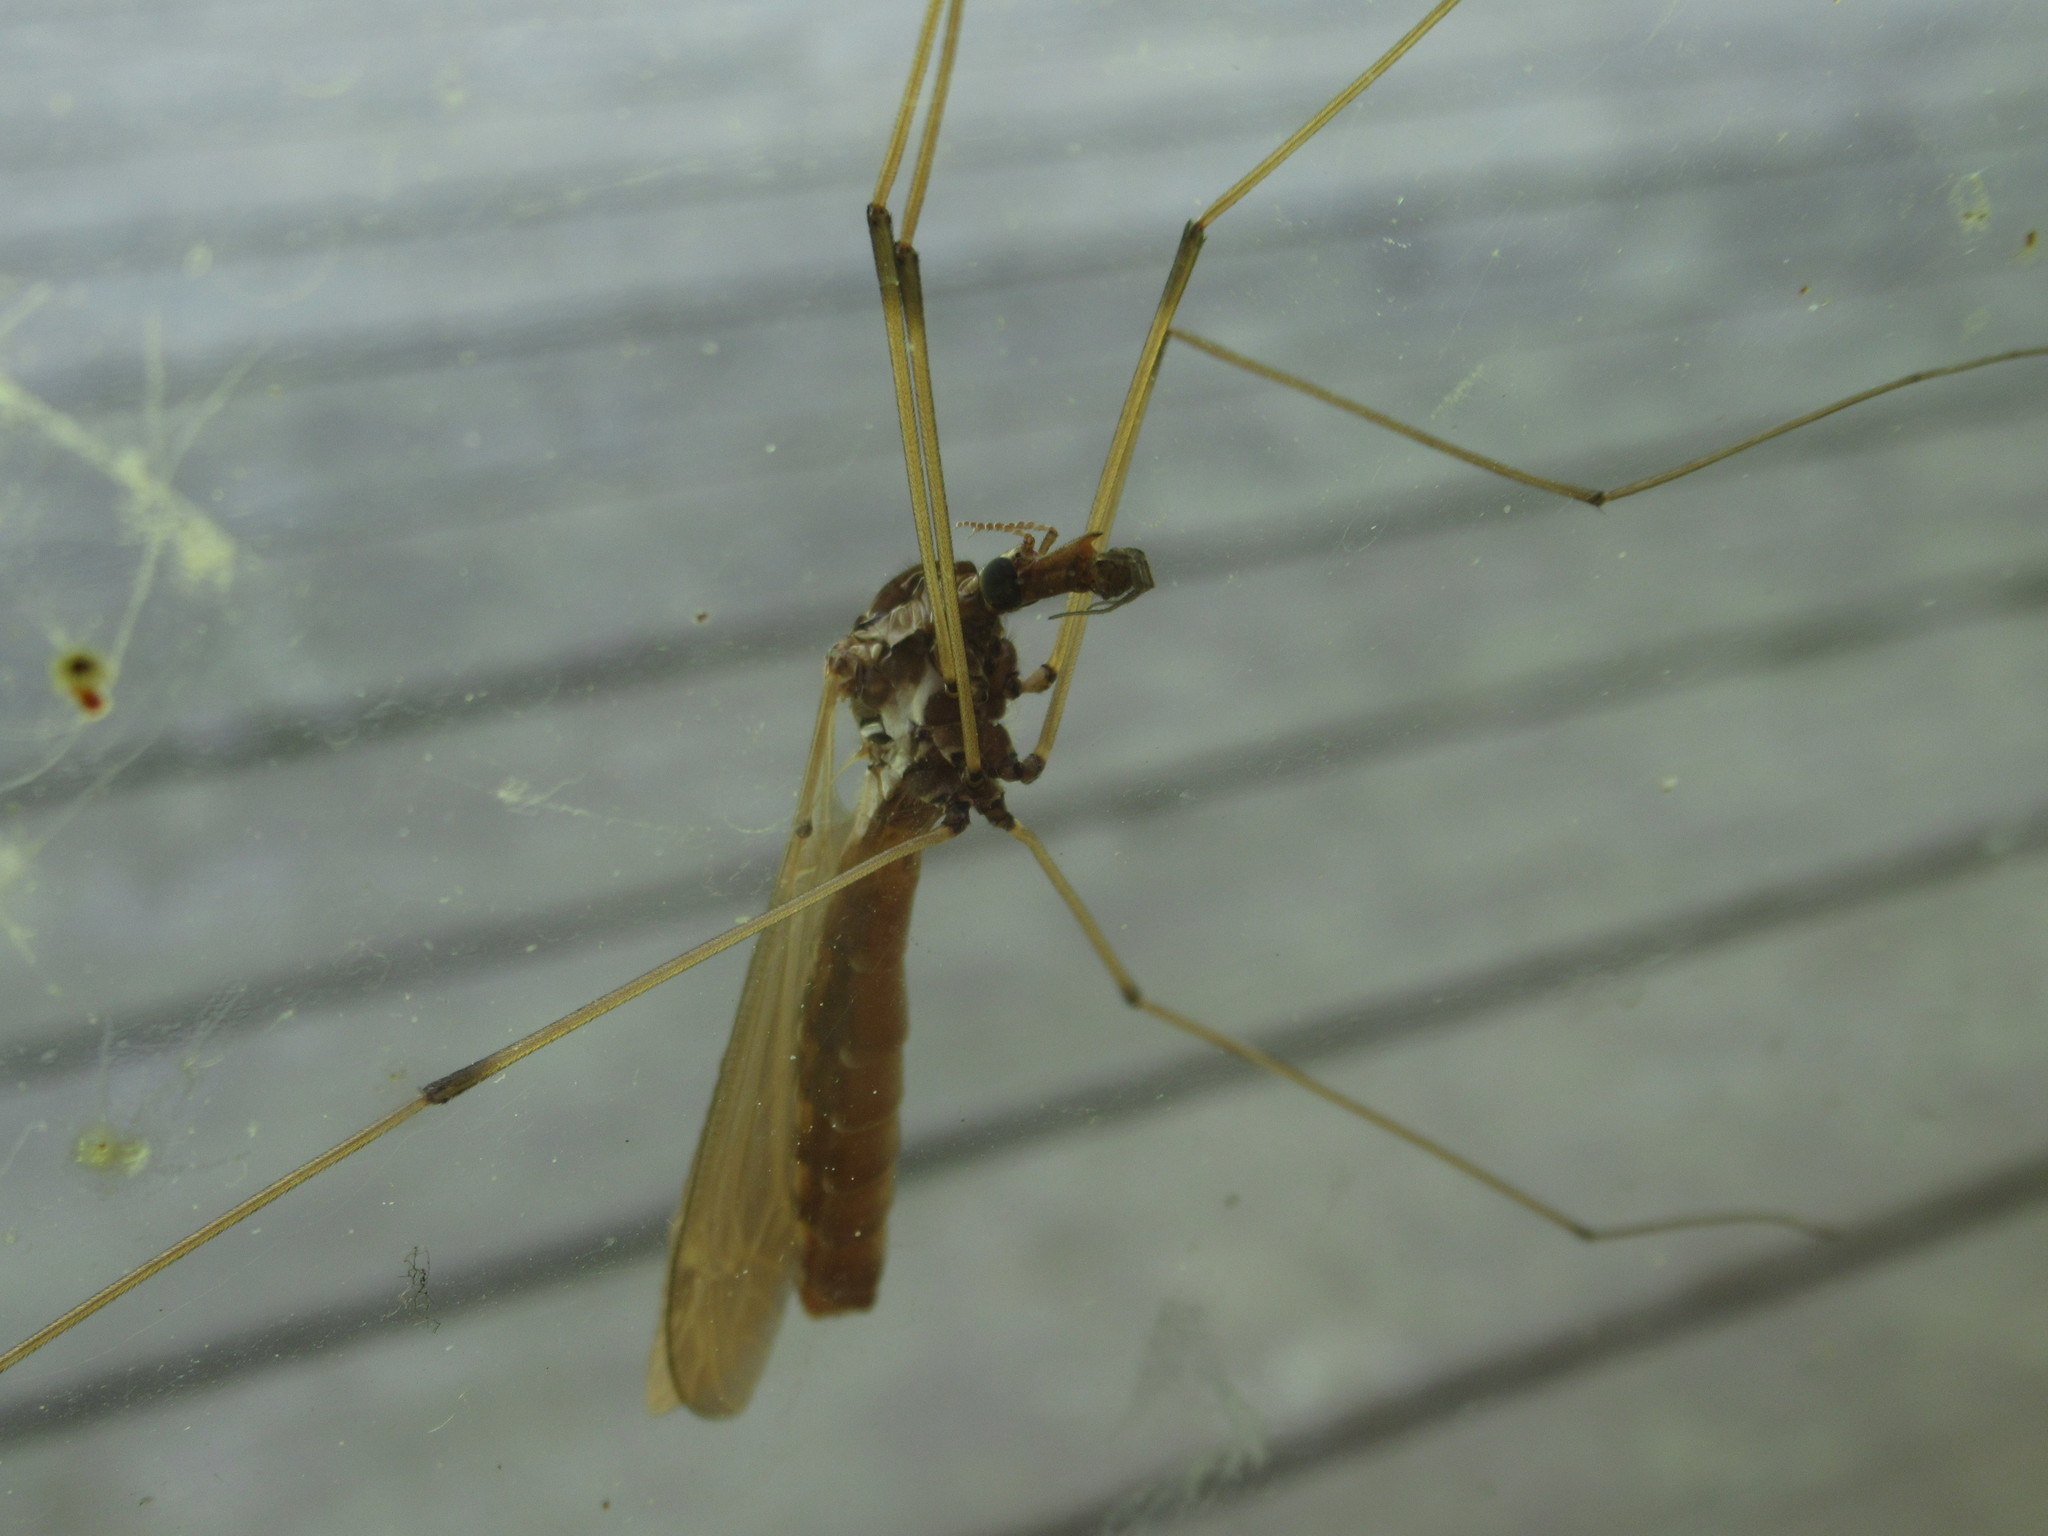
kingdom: Animalia
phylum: Arthropoda
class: Insecta
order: Diptera
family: Tipulidae
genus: Holorusia
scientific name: Holorusia hespera
